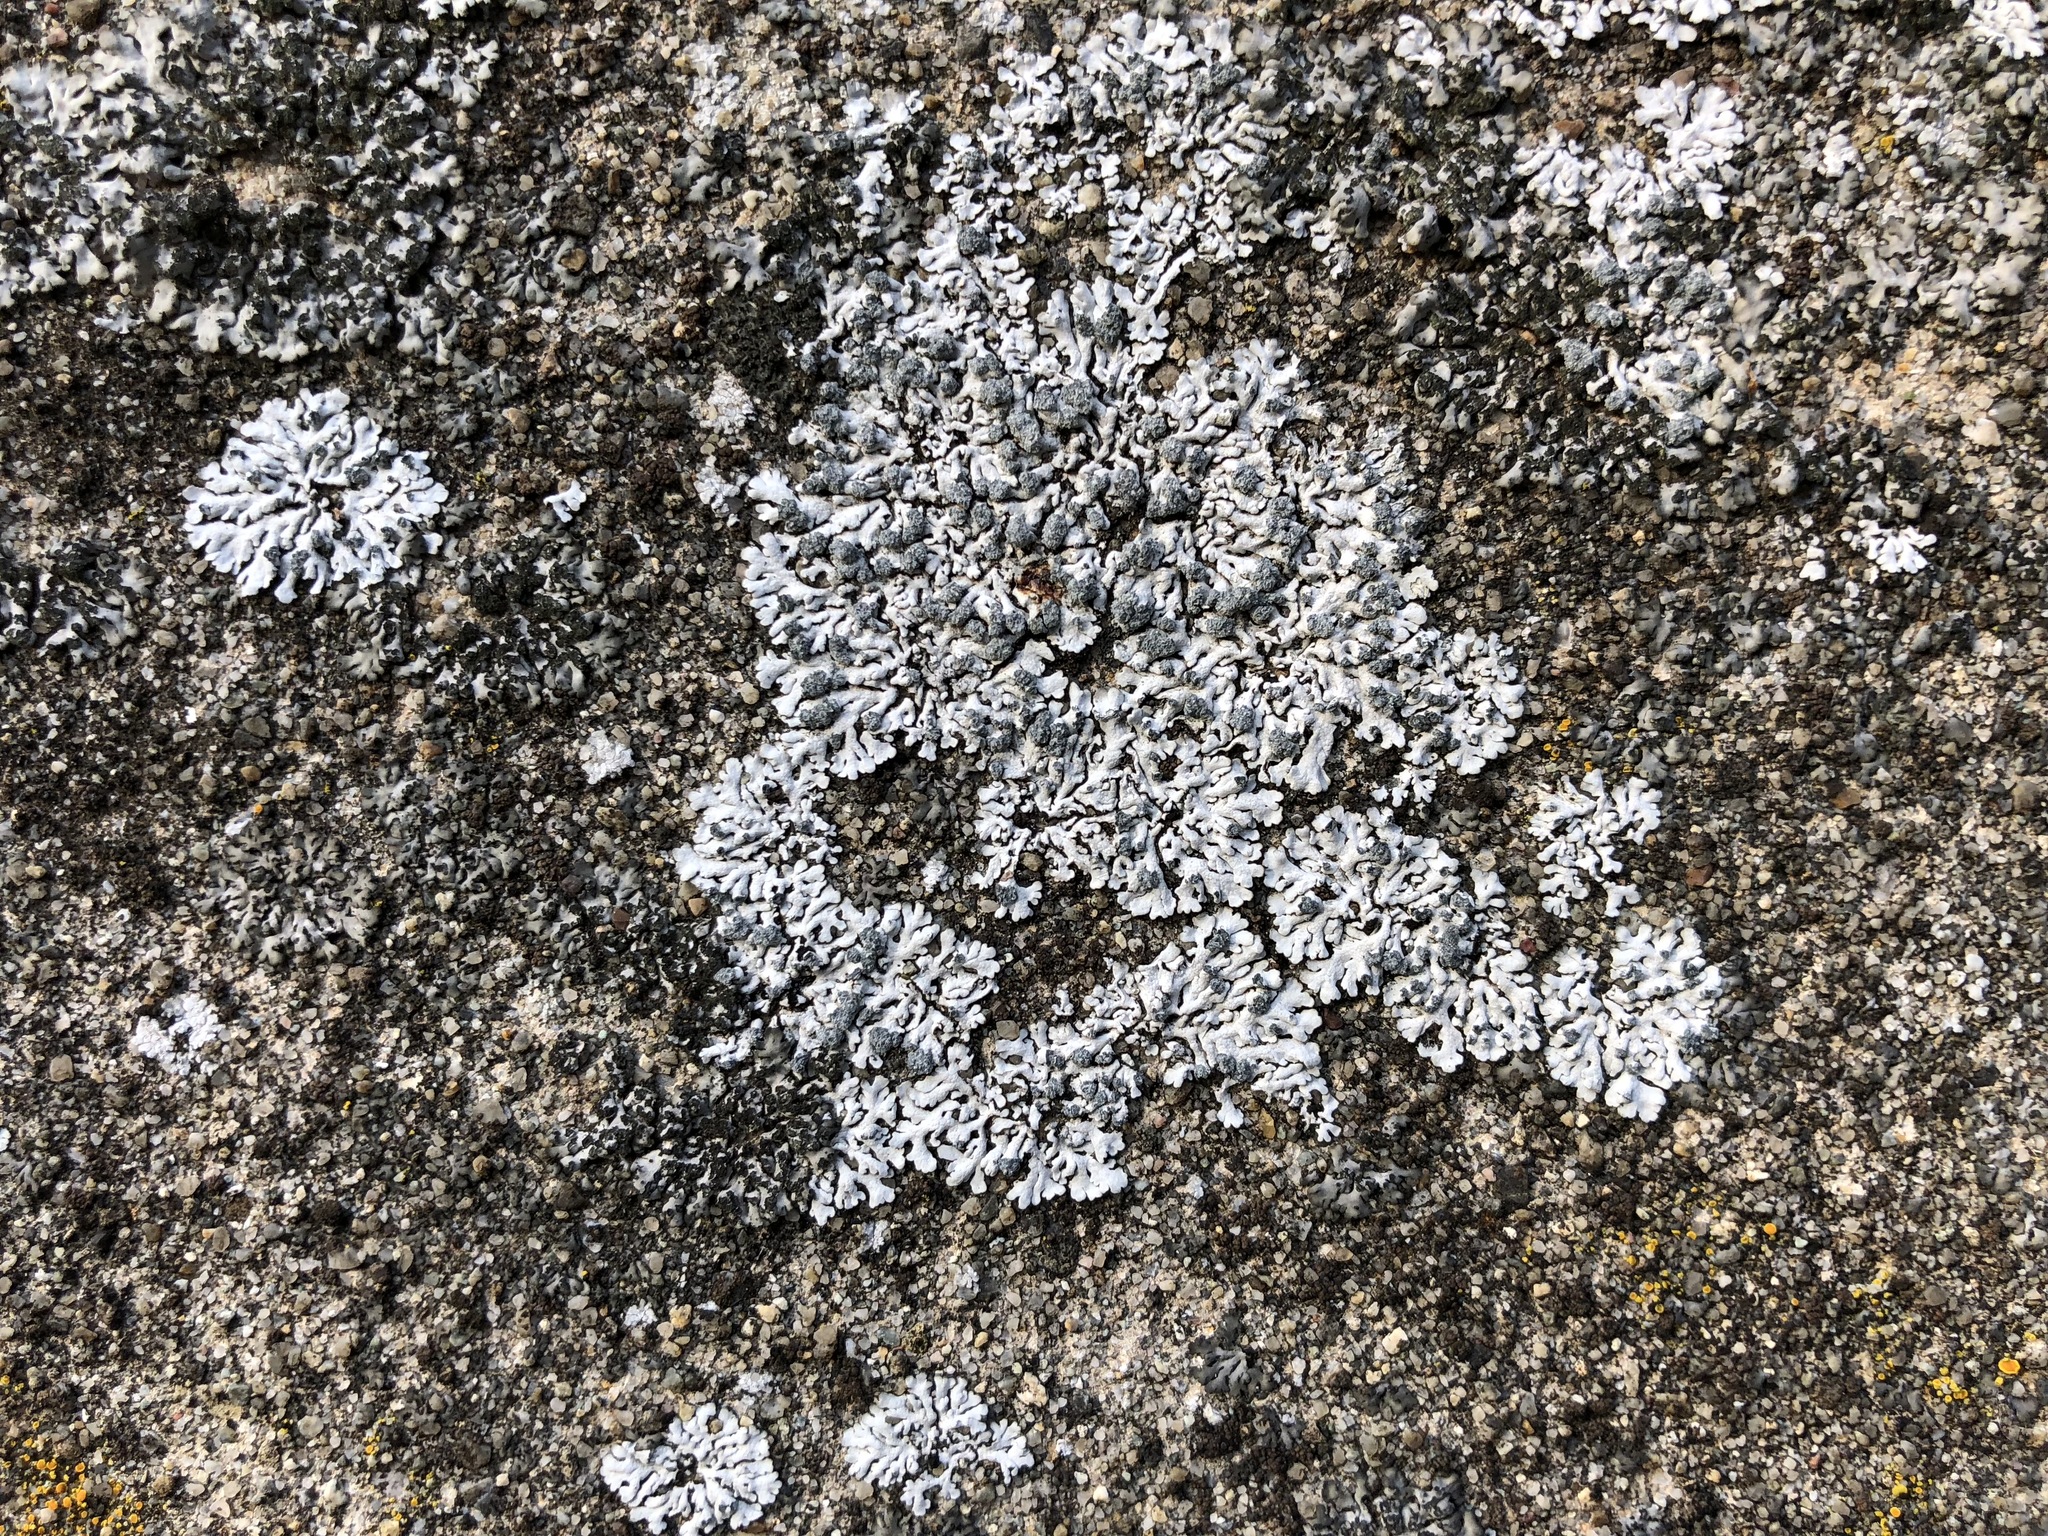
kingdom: Fungi
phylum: Ascomycota
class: Lecanoromycetes
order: Caliciales
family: Physciaceae
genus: Physcia
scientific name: Physcia caesia
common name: Blue-gray rosette lichen
